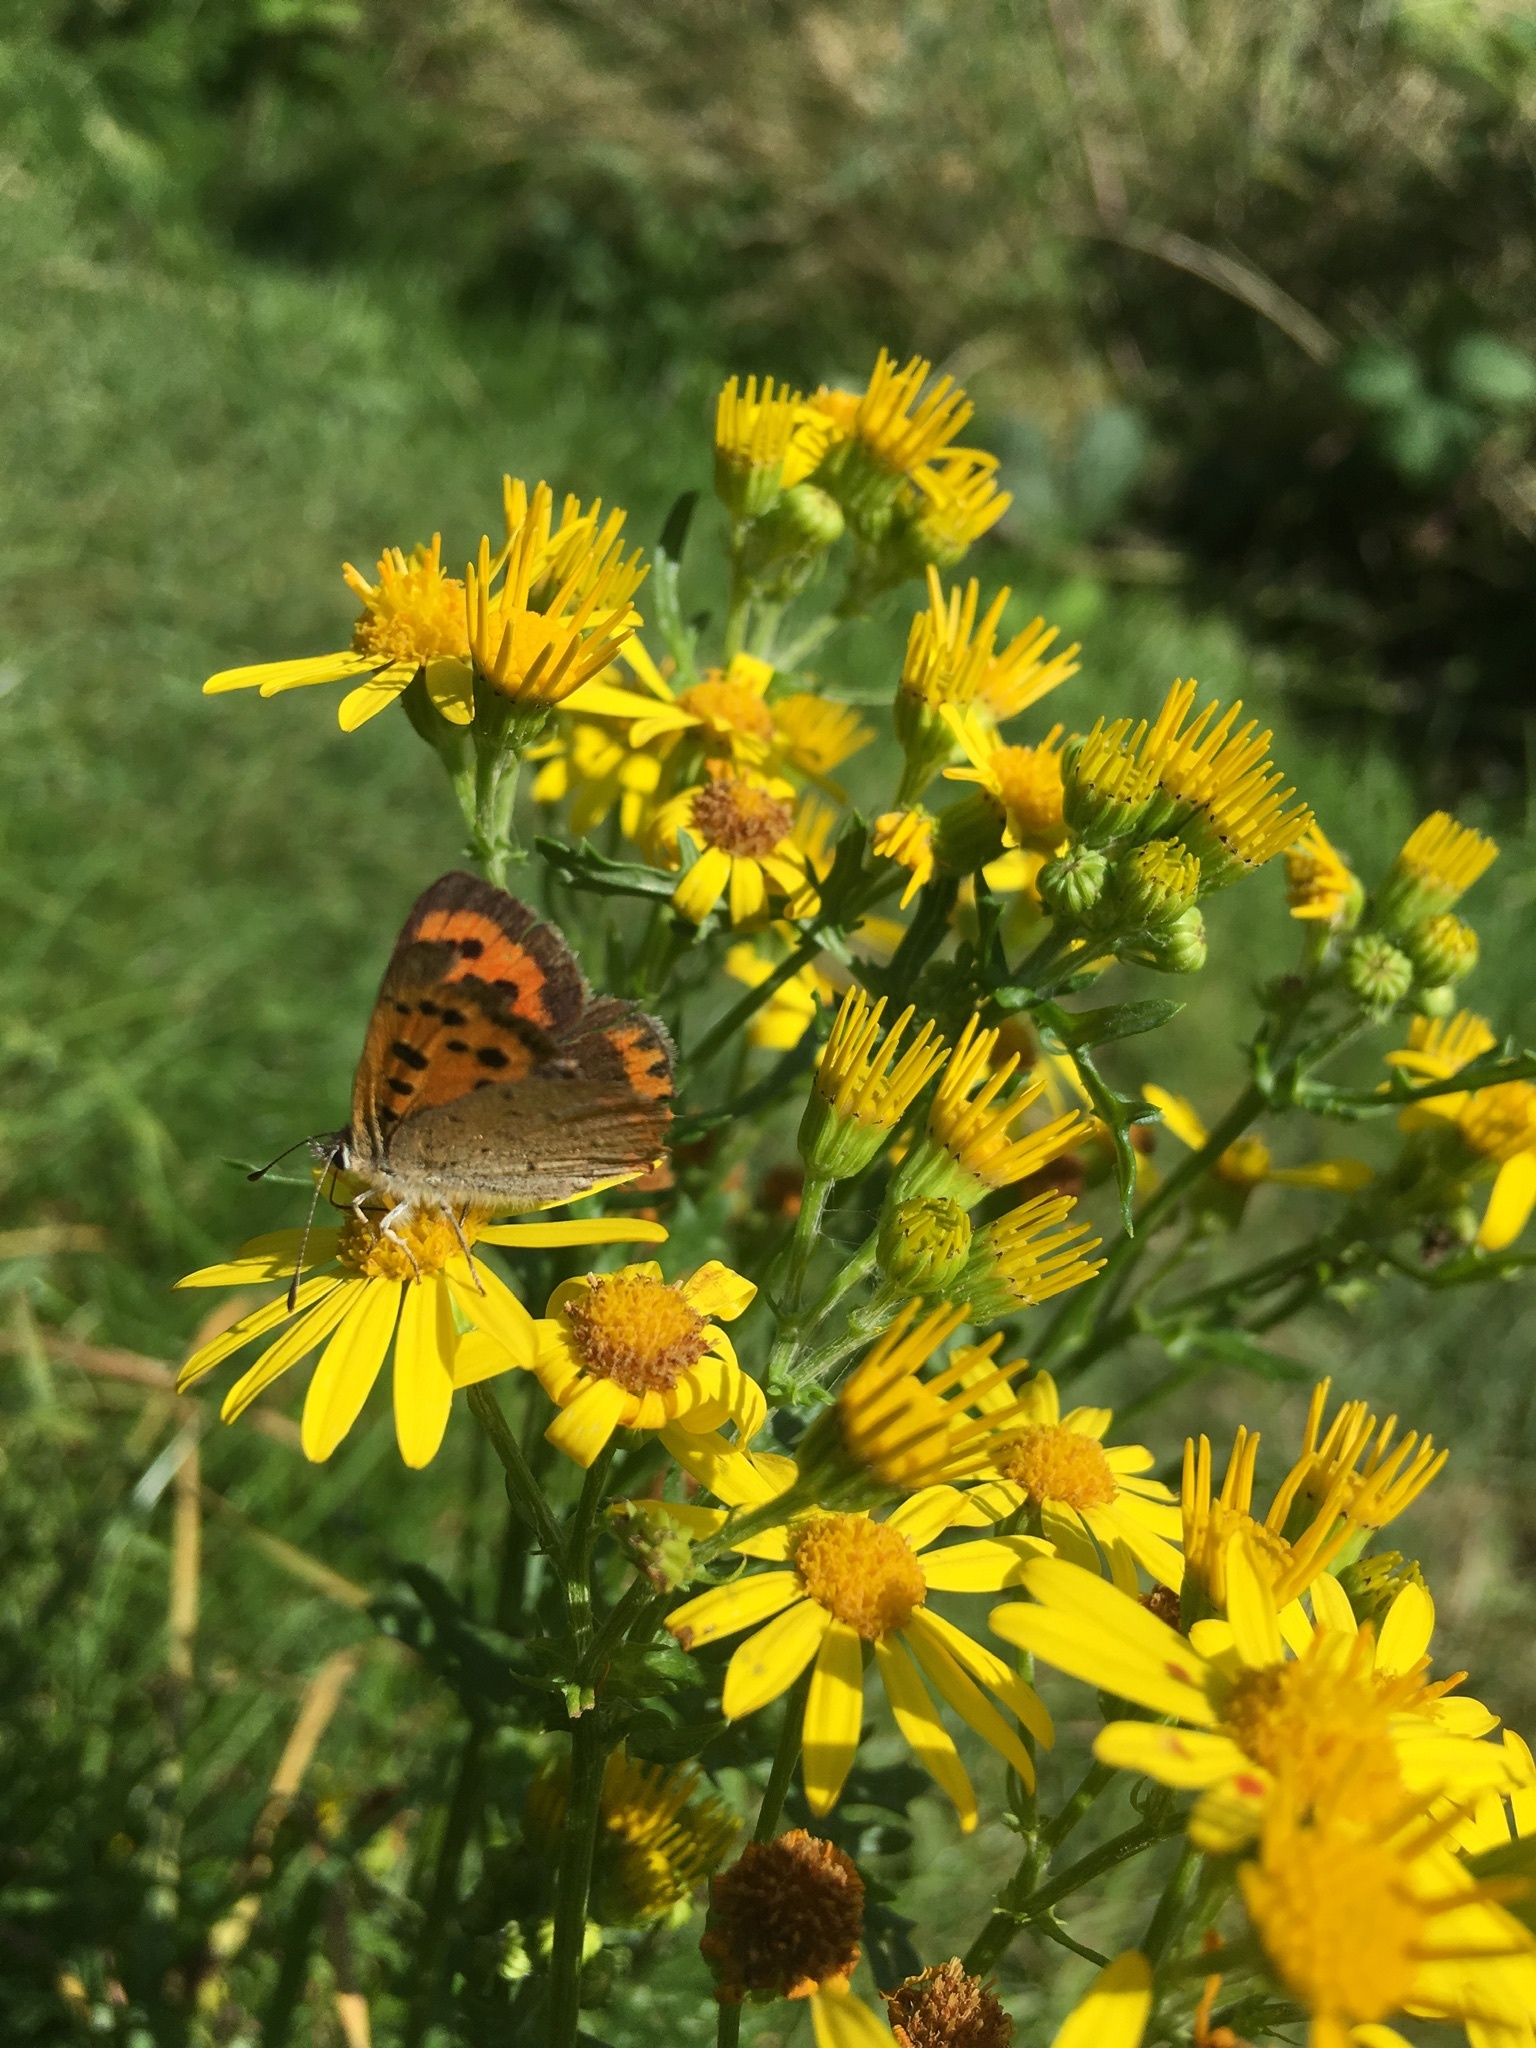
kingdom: Animalia
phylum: Arthropoda
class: Insecta
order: Lepidoptera
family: Lycaenidae
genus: Lycaena
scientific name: Lycaena phlaeas
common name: Small copper
